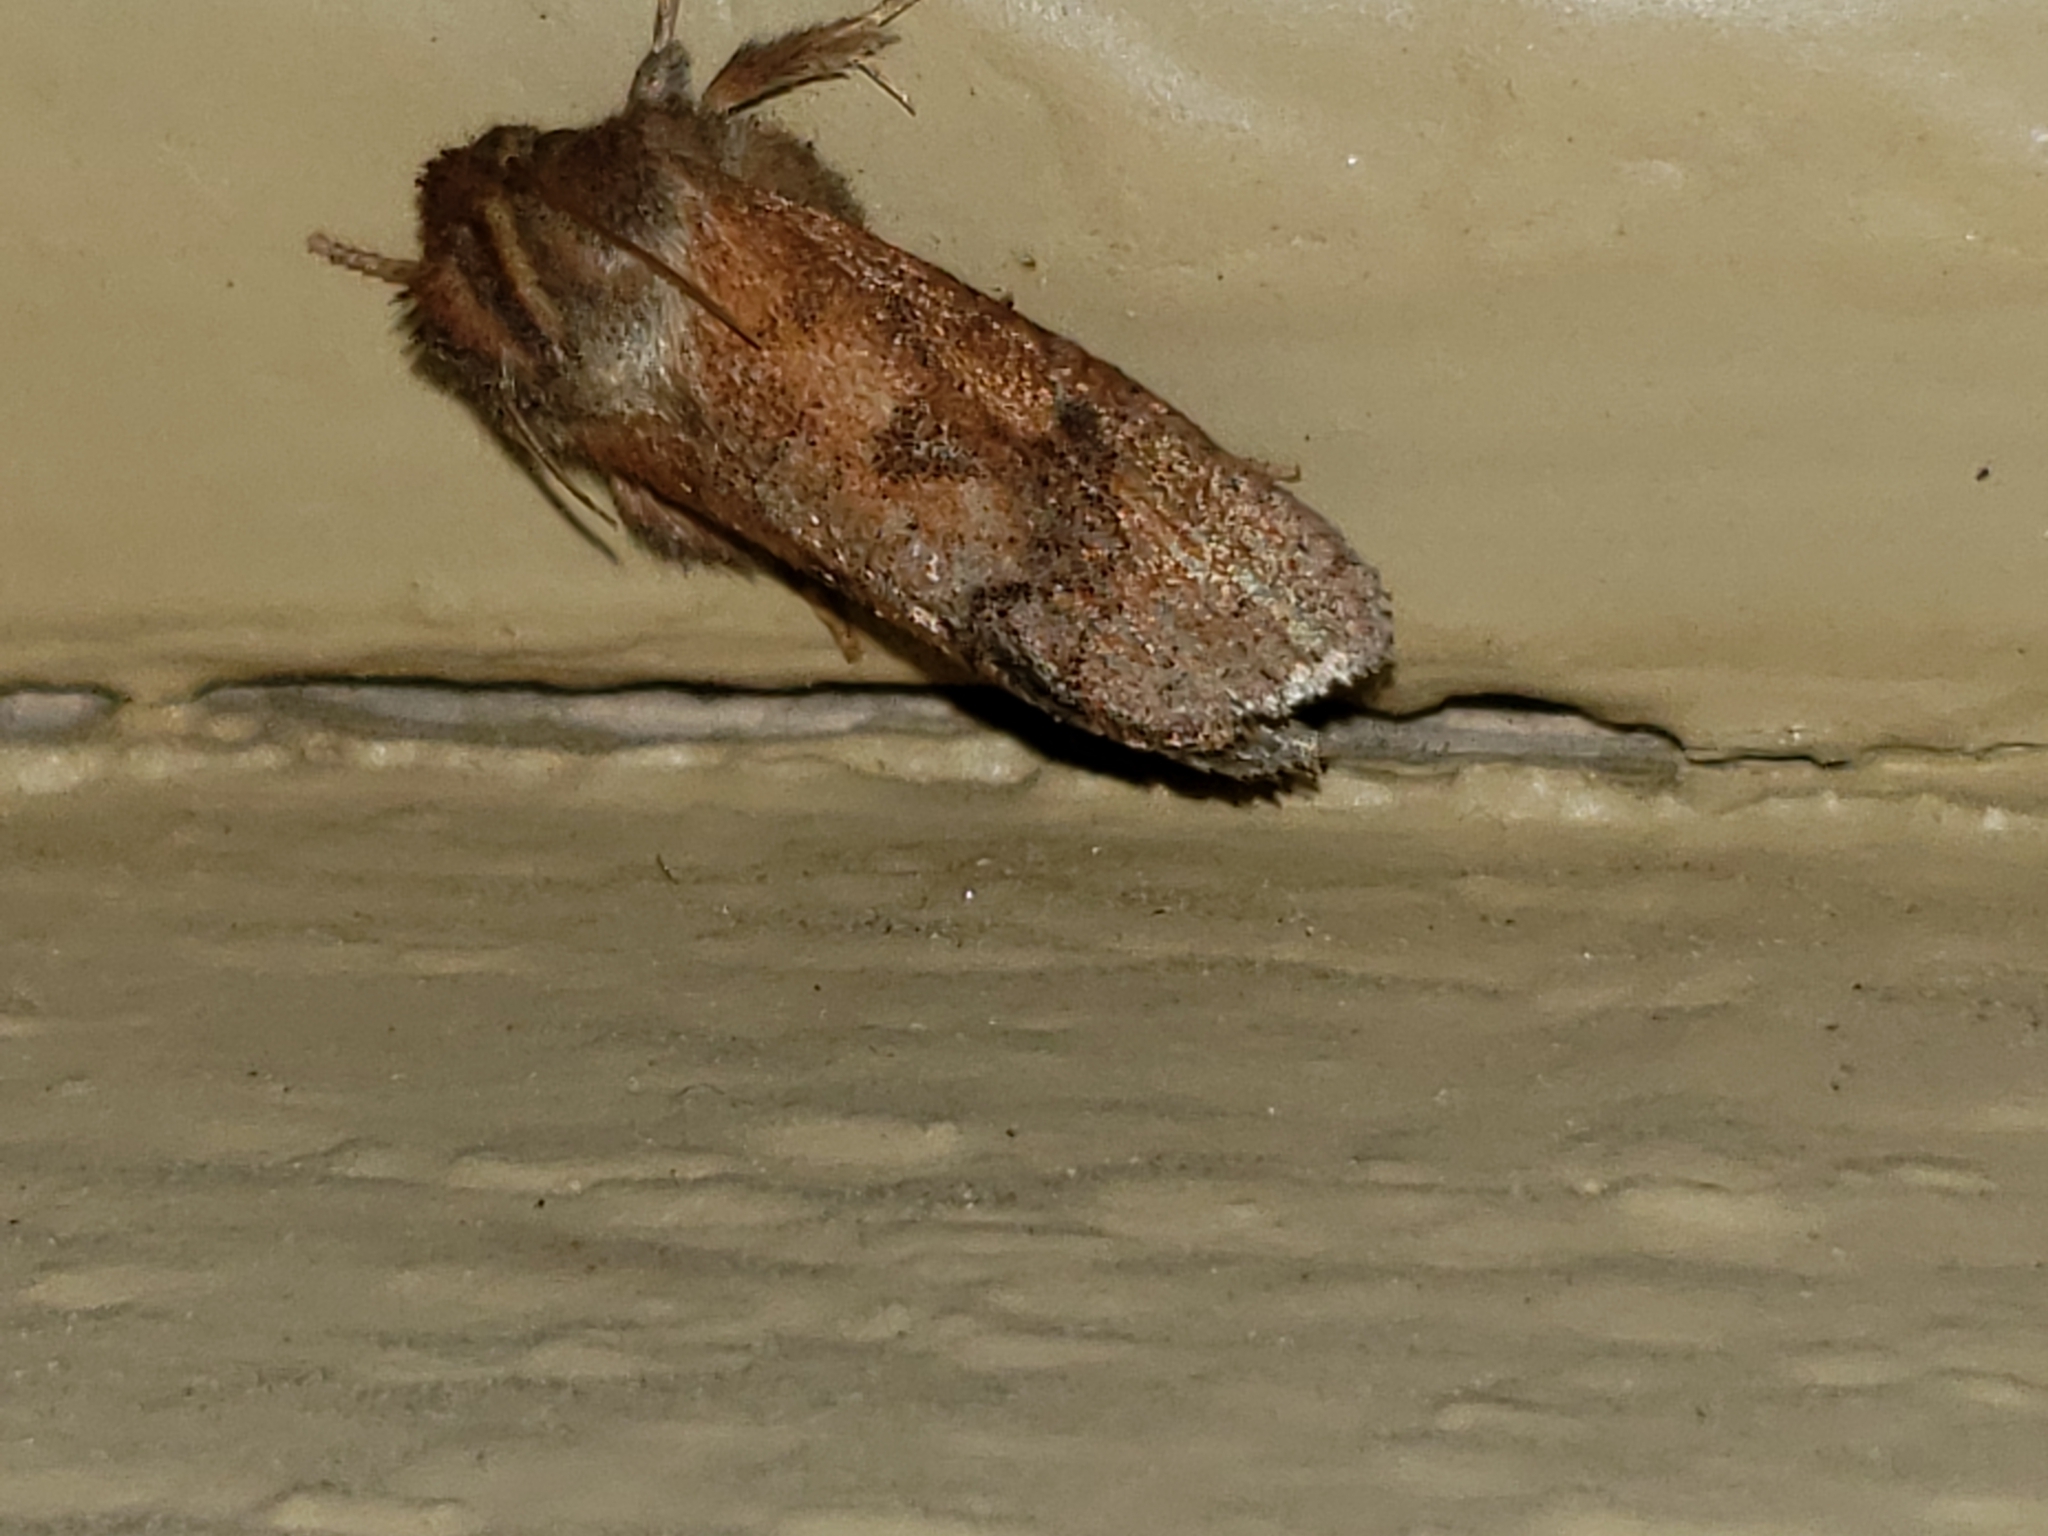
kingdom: Animalia
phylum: Arthropoda
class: Insecta
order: Lepidoptera
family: Tineidae
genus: Acrolophus
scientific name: Acrolophus plumifrontella
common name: Eastern grass tubeworm moth
